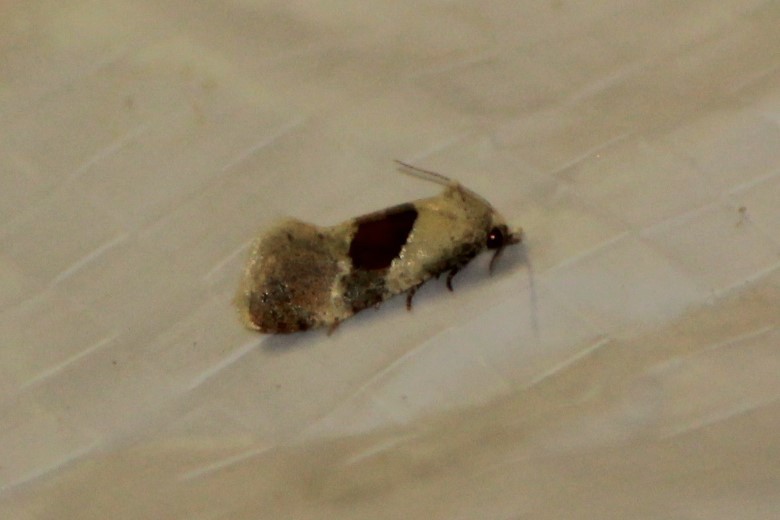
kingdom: Animalia
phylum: Arthropoda
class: Insecta
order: Lepidoptera
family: Tortricidae
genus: Phalonidia
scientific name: Phalonidia lepidana
